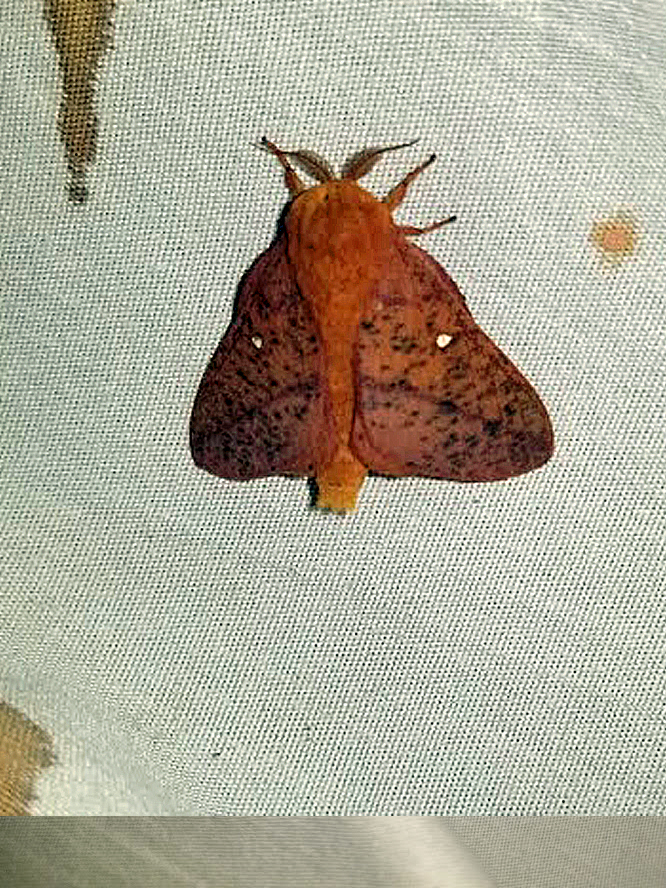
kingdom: Animalia
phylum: Arthropoda
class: Insecta
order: Lepidoptera
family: Saturniidae
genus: Anisota
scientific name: Anisota stigma
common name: Spiny oakworm moth
